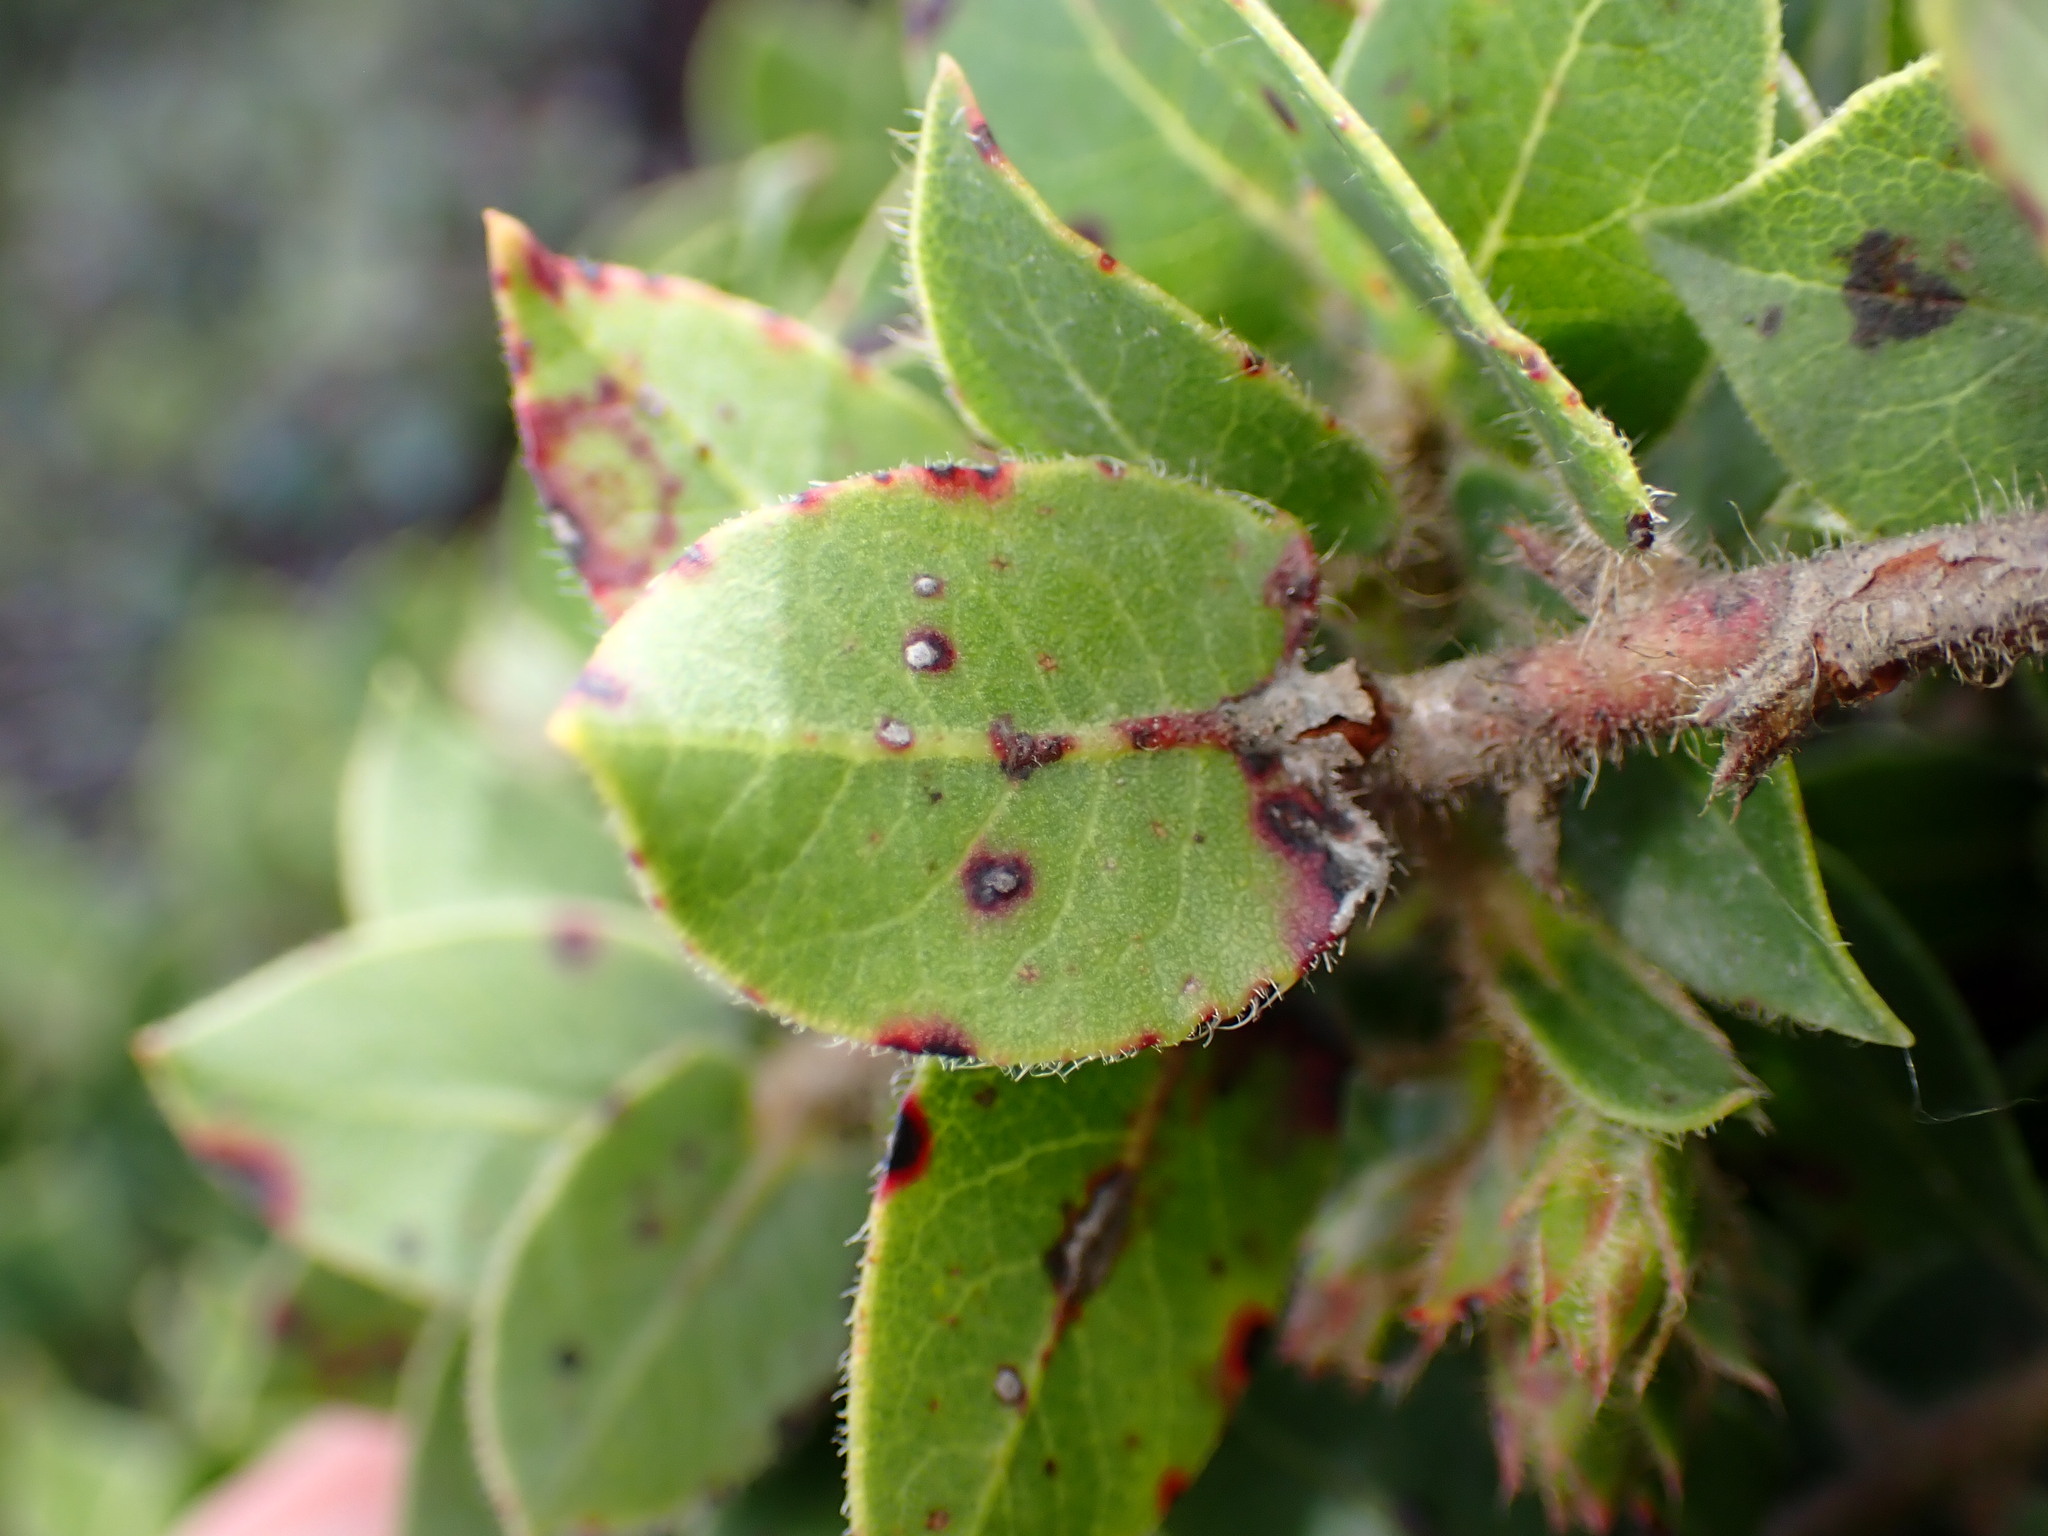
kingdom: Plantae
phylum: Tracheophyta
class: Magnoliopsida
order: Ericales
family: Ericaceae
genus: Arctostaphylos
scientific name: Arctostaphylos imbricata
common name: San bruno mountain manzanita
